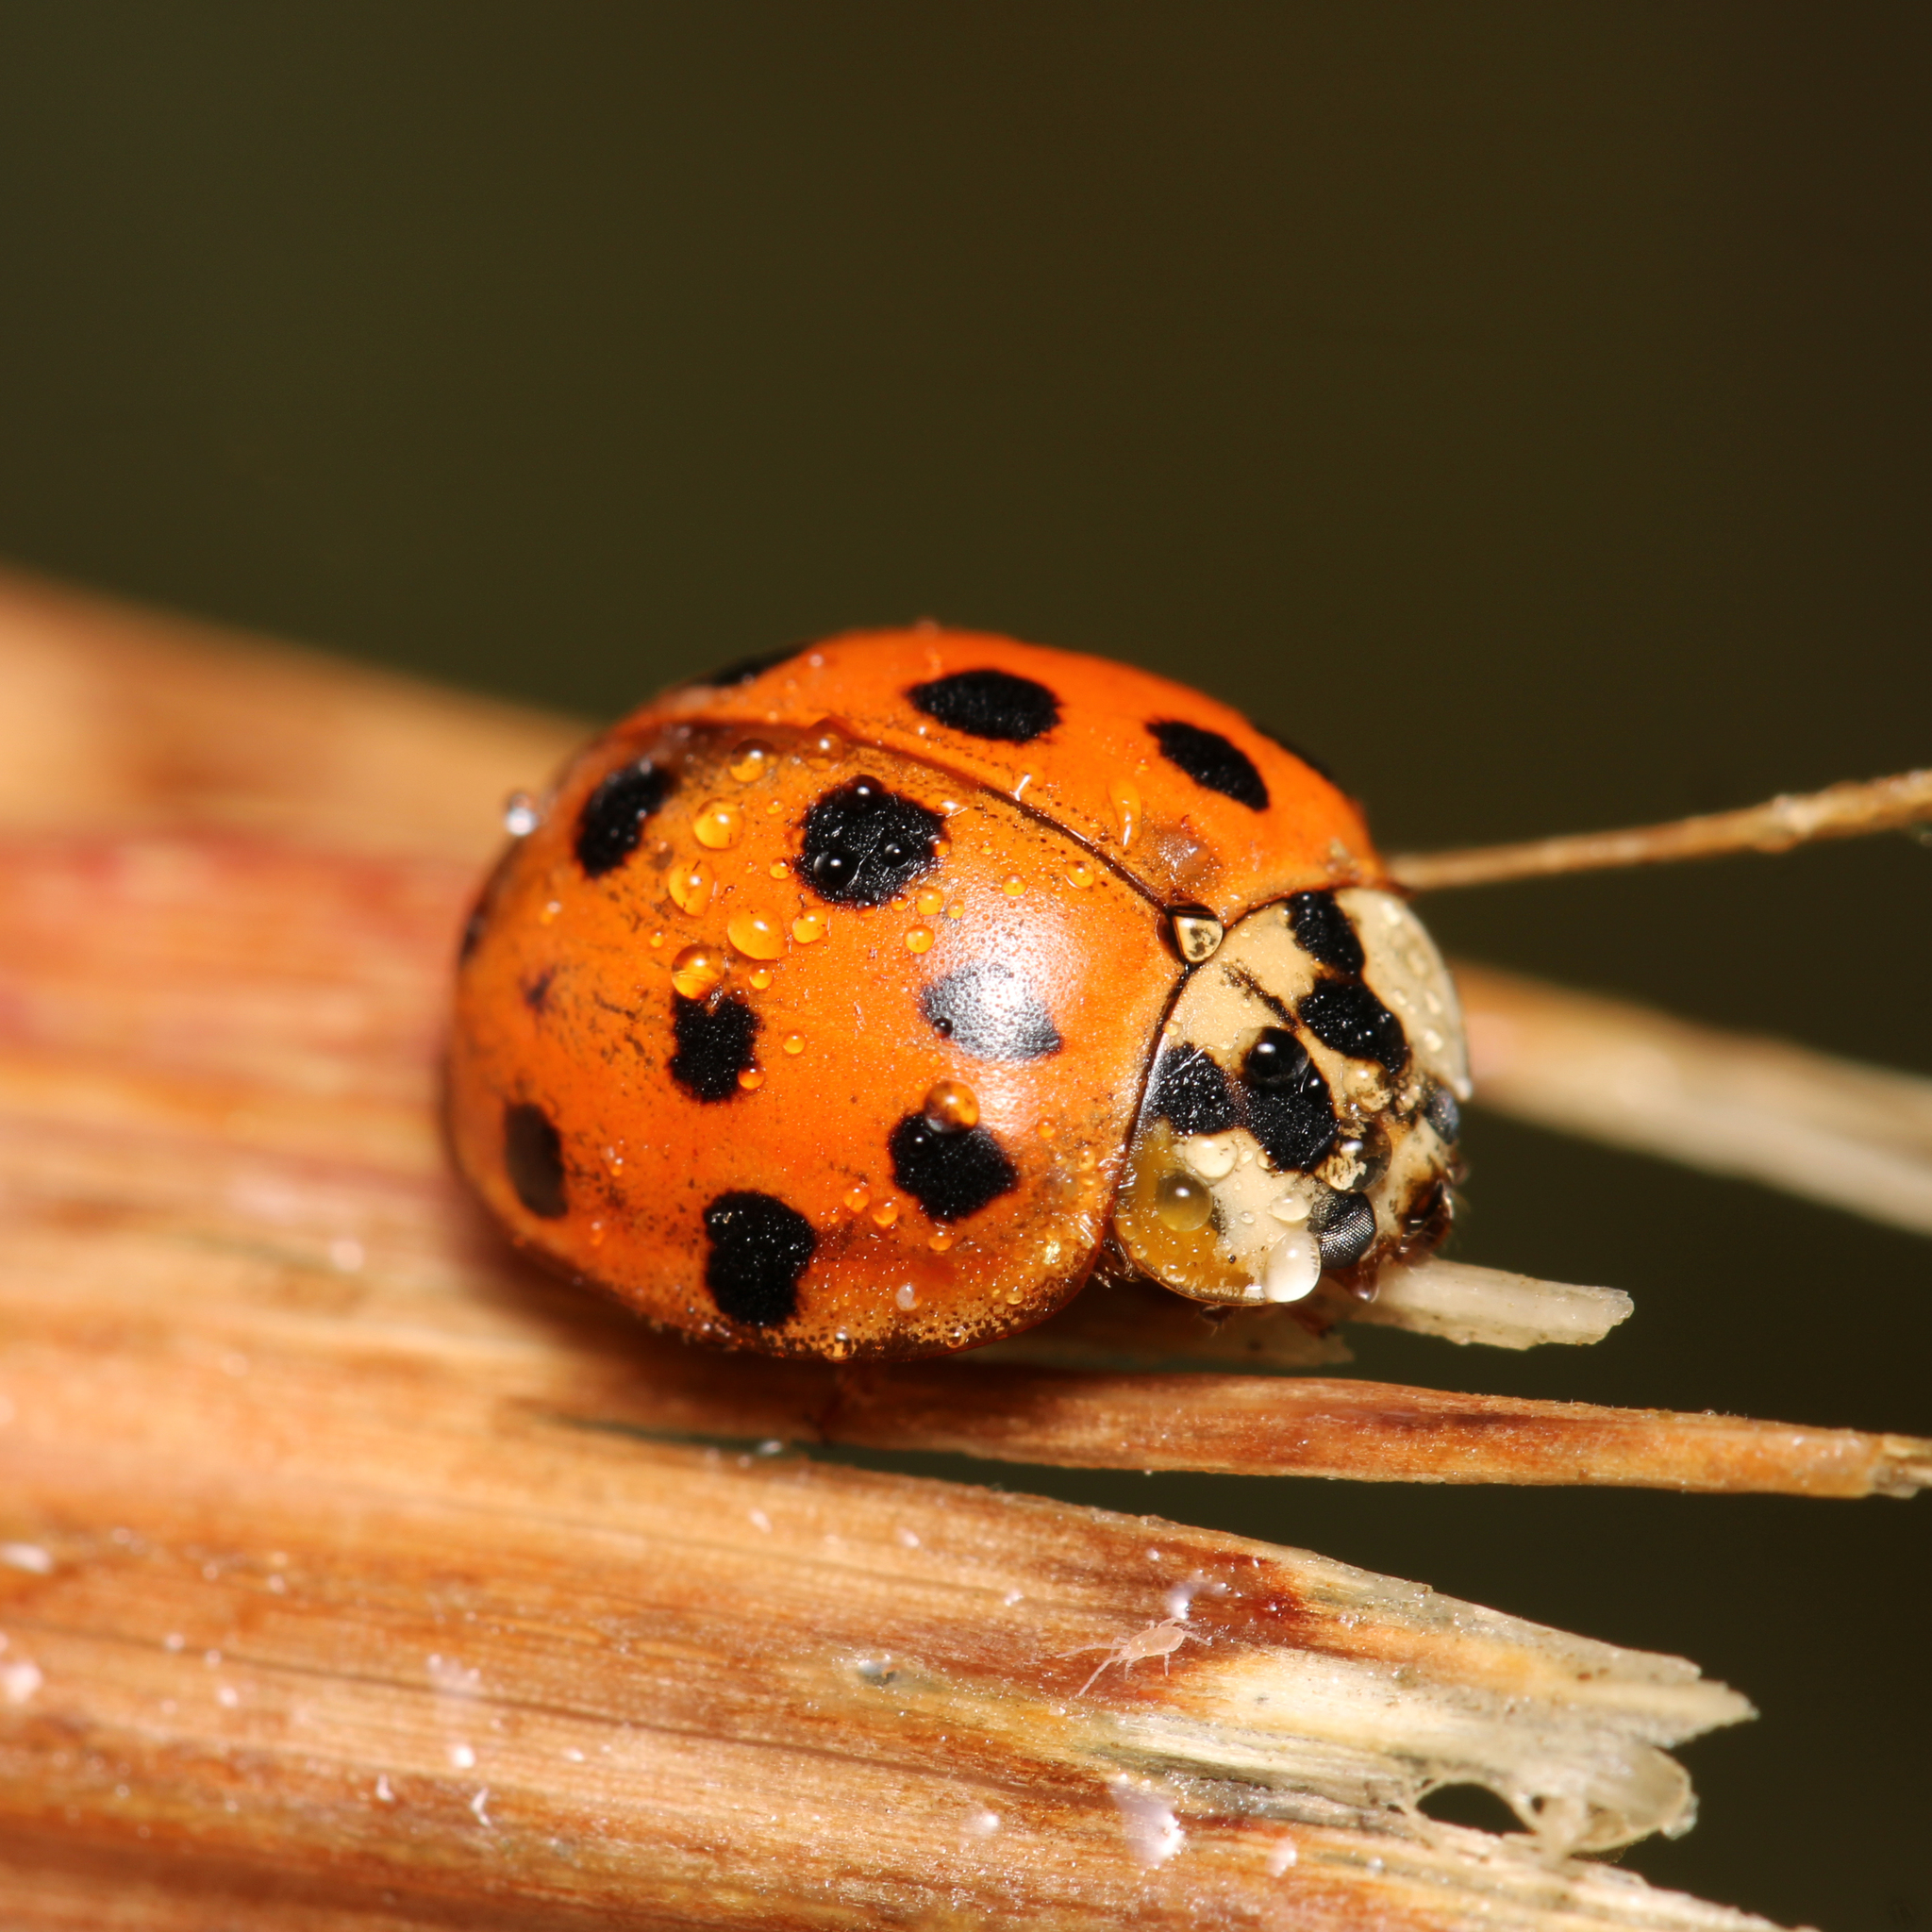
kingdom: Animalia
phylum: Arthropoda
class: Insecta
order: Coleoptera
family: Coccinellidae
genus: Harmonia
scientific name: Harmonia axyridis
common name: Harlequin ladybird
